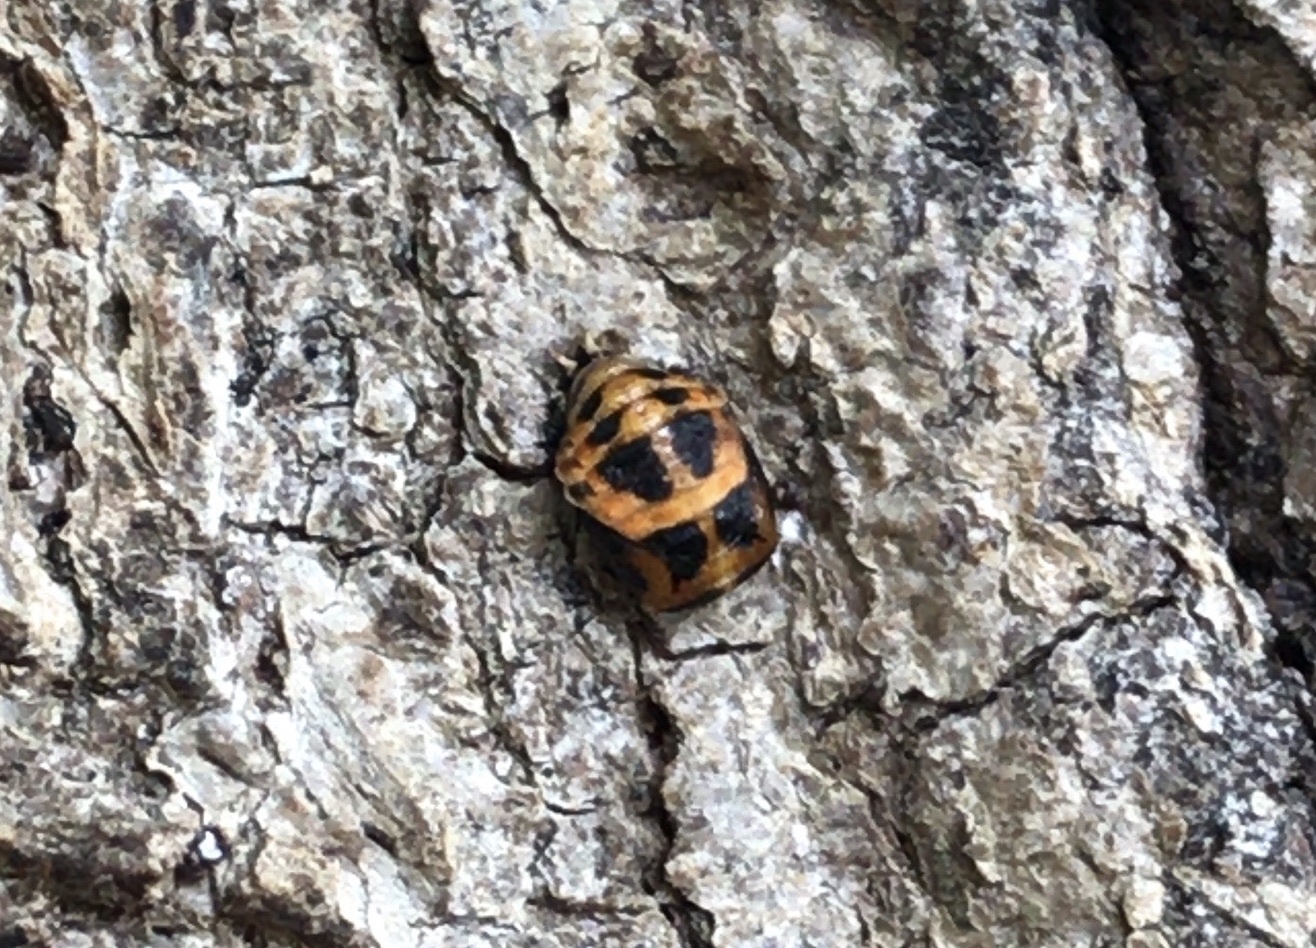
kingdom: Animalia
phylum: Arthropoda
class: Insecta
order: Coleoptera
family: Coccinellidae
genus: Harmonia
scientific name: Harmonia axyridis
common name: Harlequin ladybird
